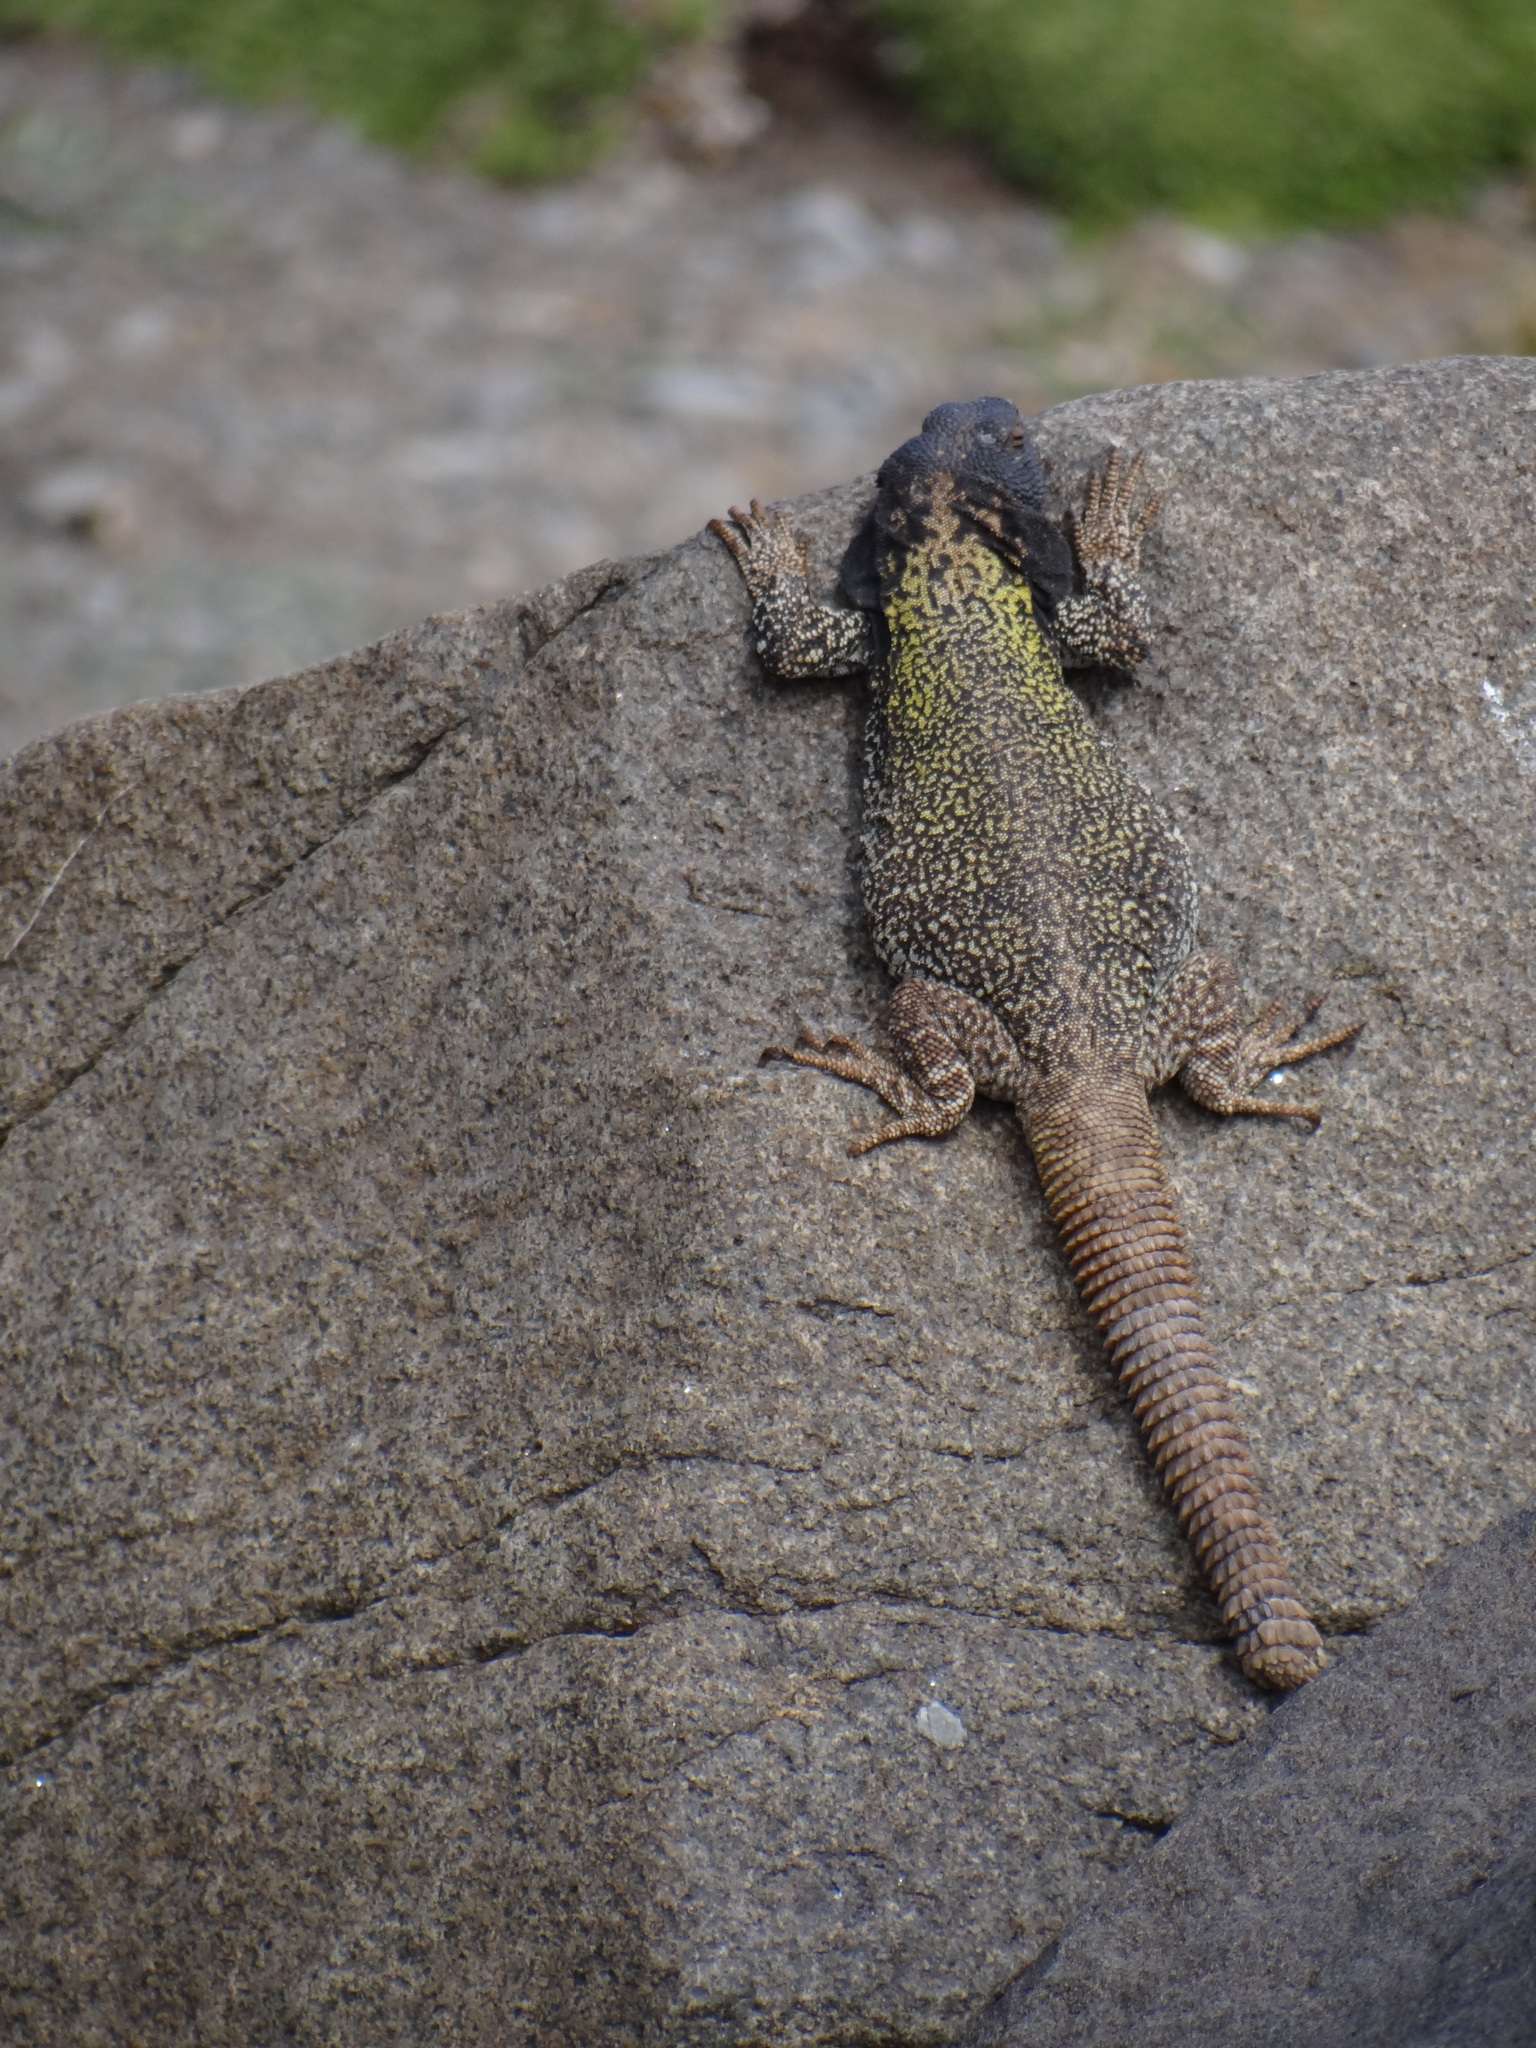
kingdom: Animalia
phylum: Chordata
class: Squamata
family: Liolaemidae
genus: Phymaturus
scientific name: Phymaturus extrilidus
